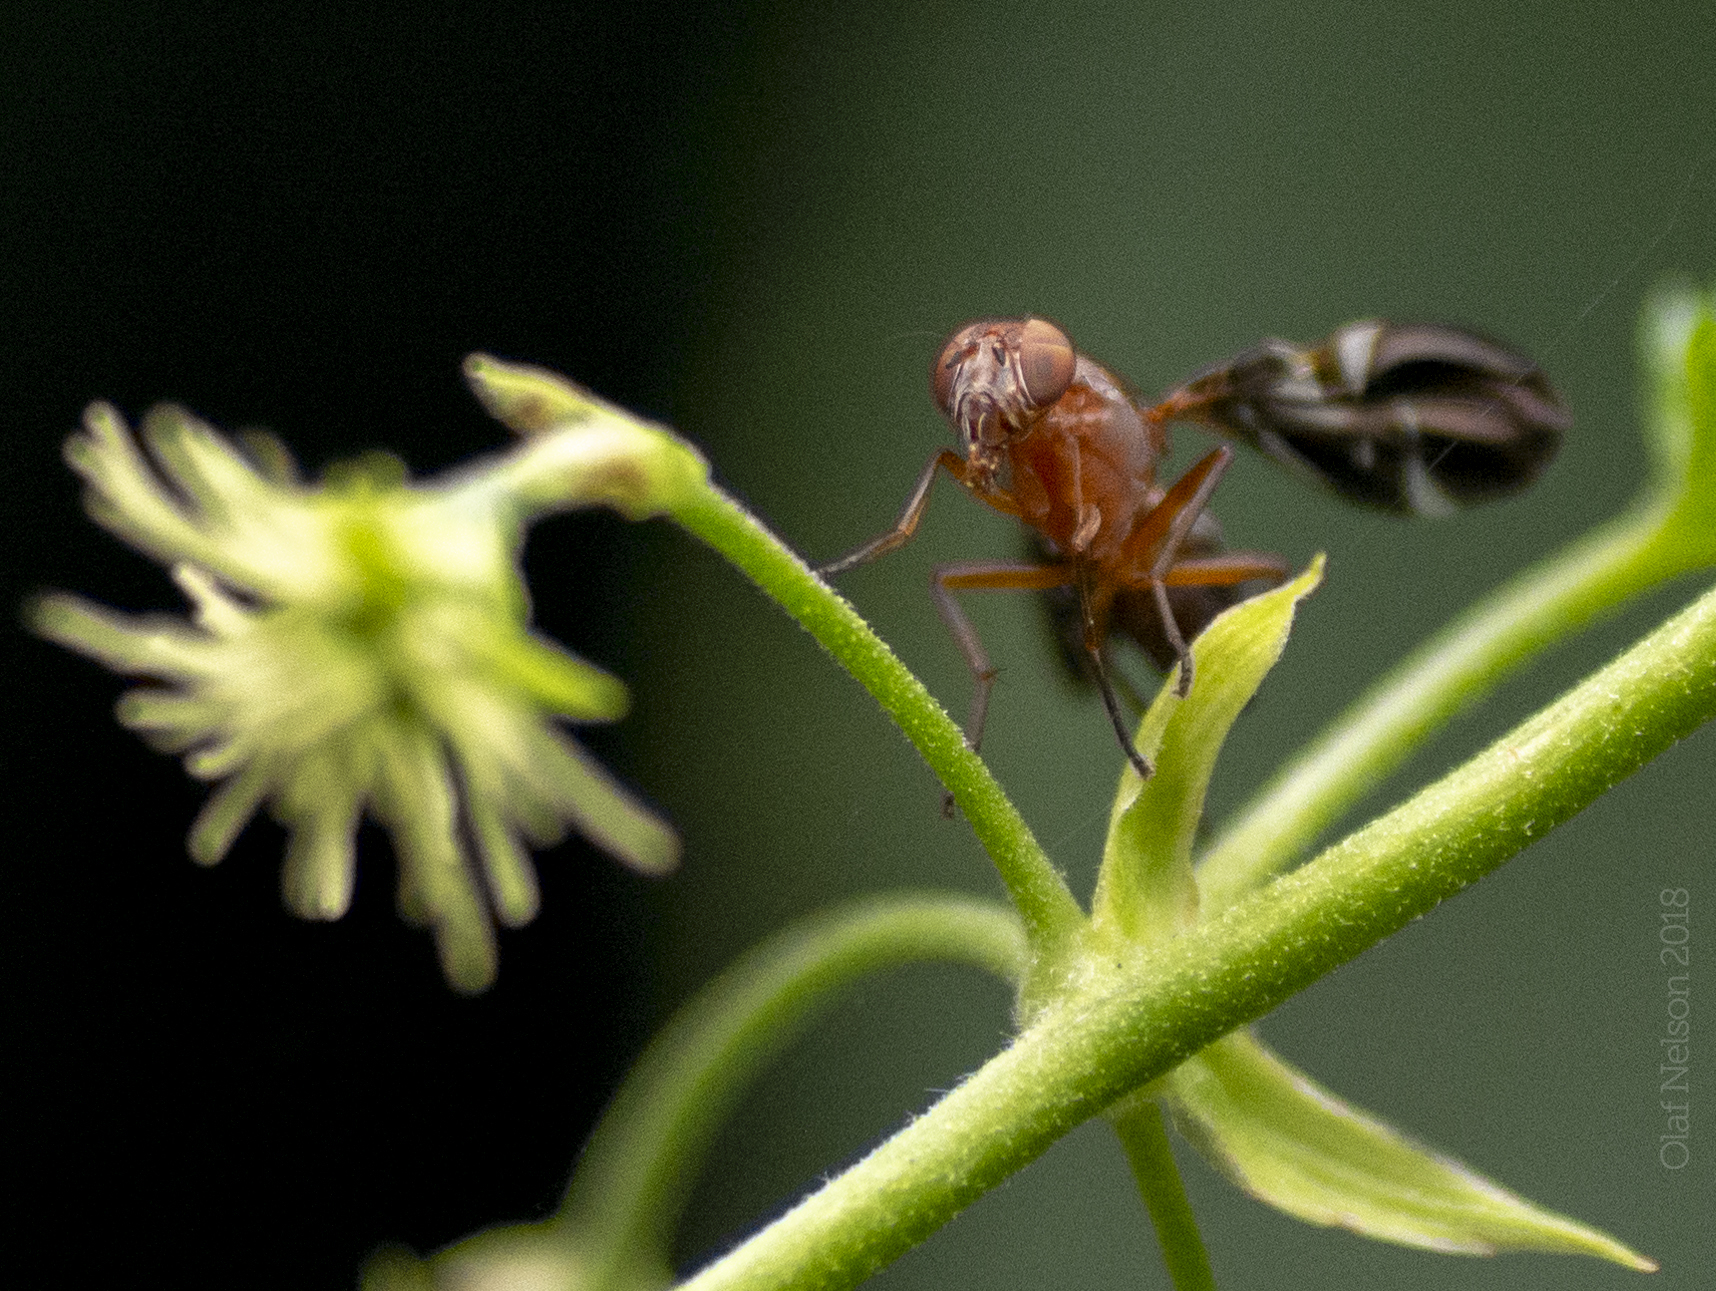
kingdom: Animalia
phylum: Arthropoda
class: Insecta
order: Diptera
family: Ulidiidae
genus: Delphinia
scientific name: Delphinia picta
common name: Common picture-winged fly
